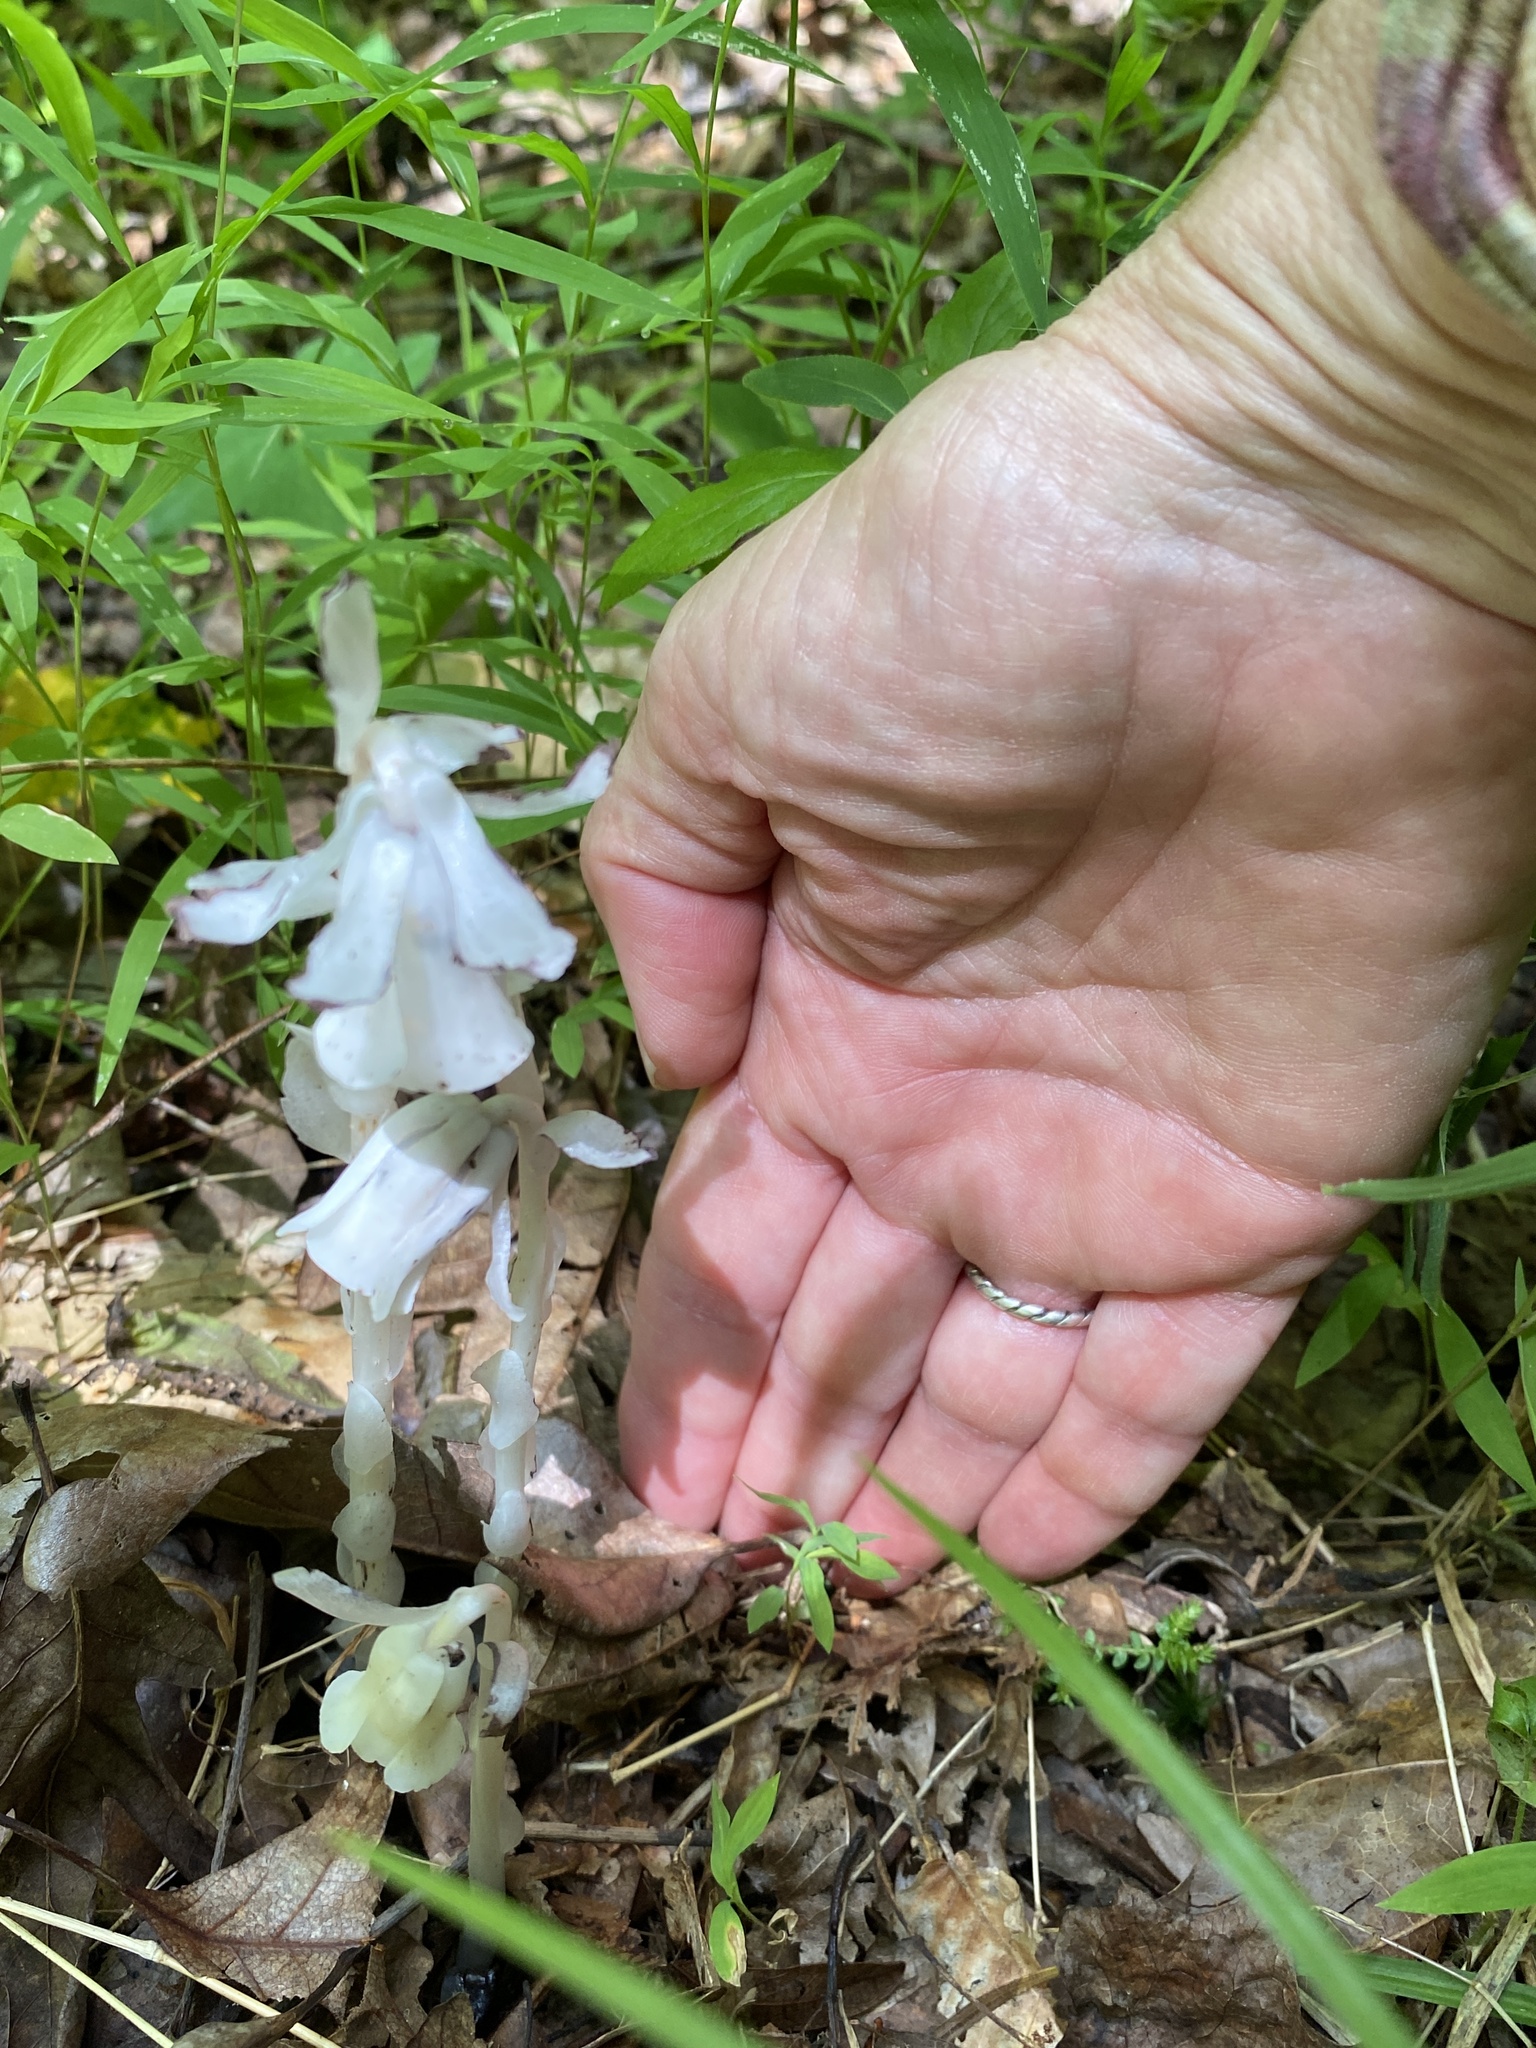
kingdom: Plantae
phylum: Tracheophyta
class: Magnoliopsida
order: Ericales
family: Ericaceae
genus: Monotropa
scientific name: Monotropa uniflora
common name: Convulsion root
